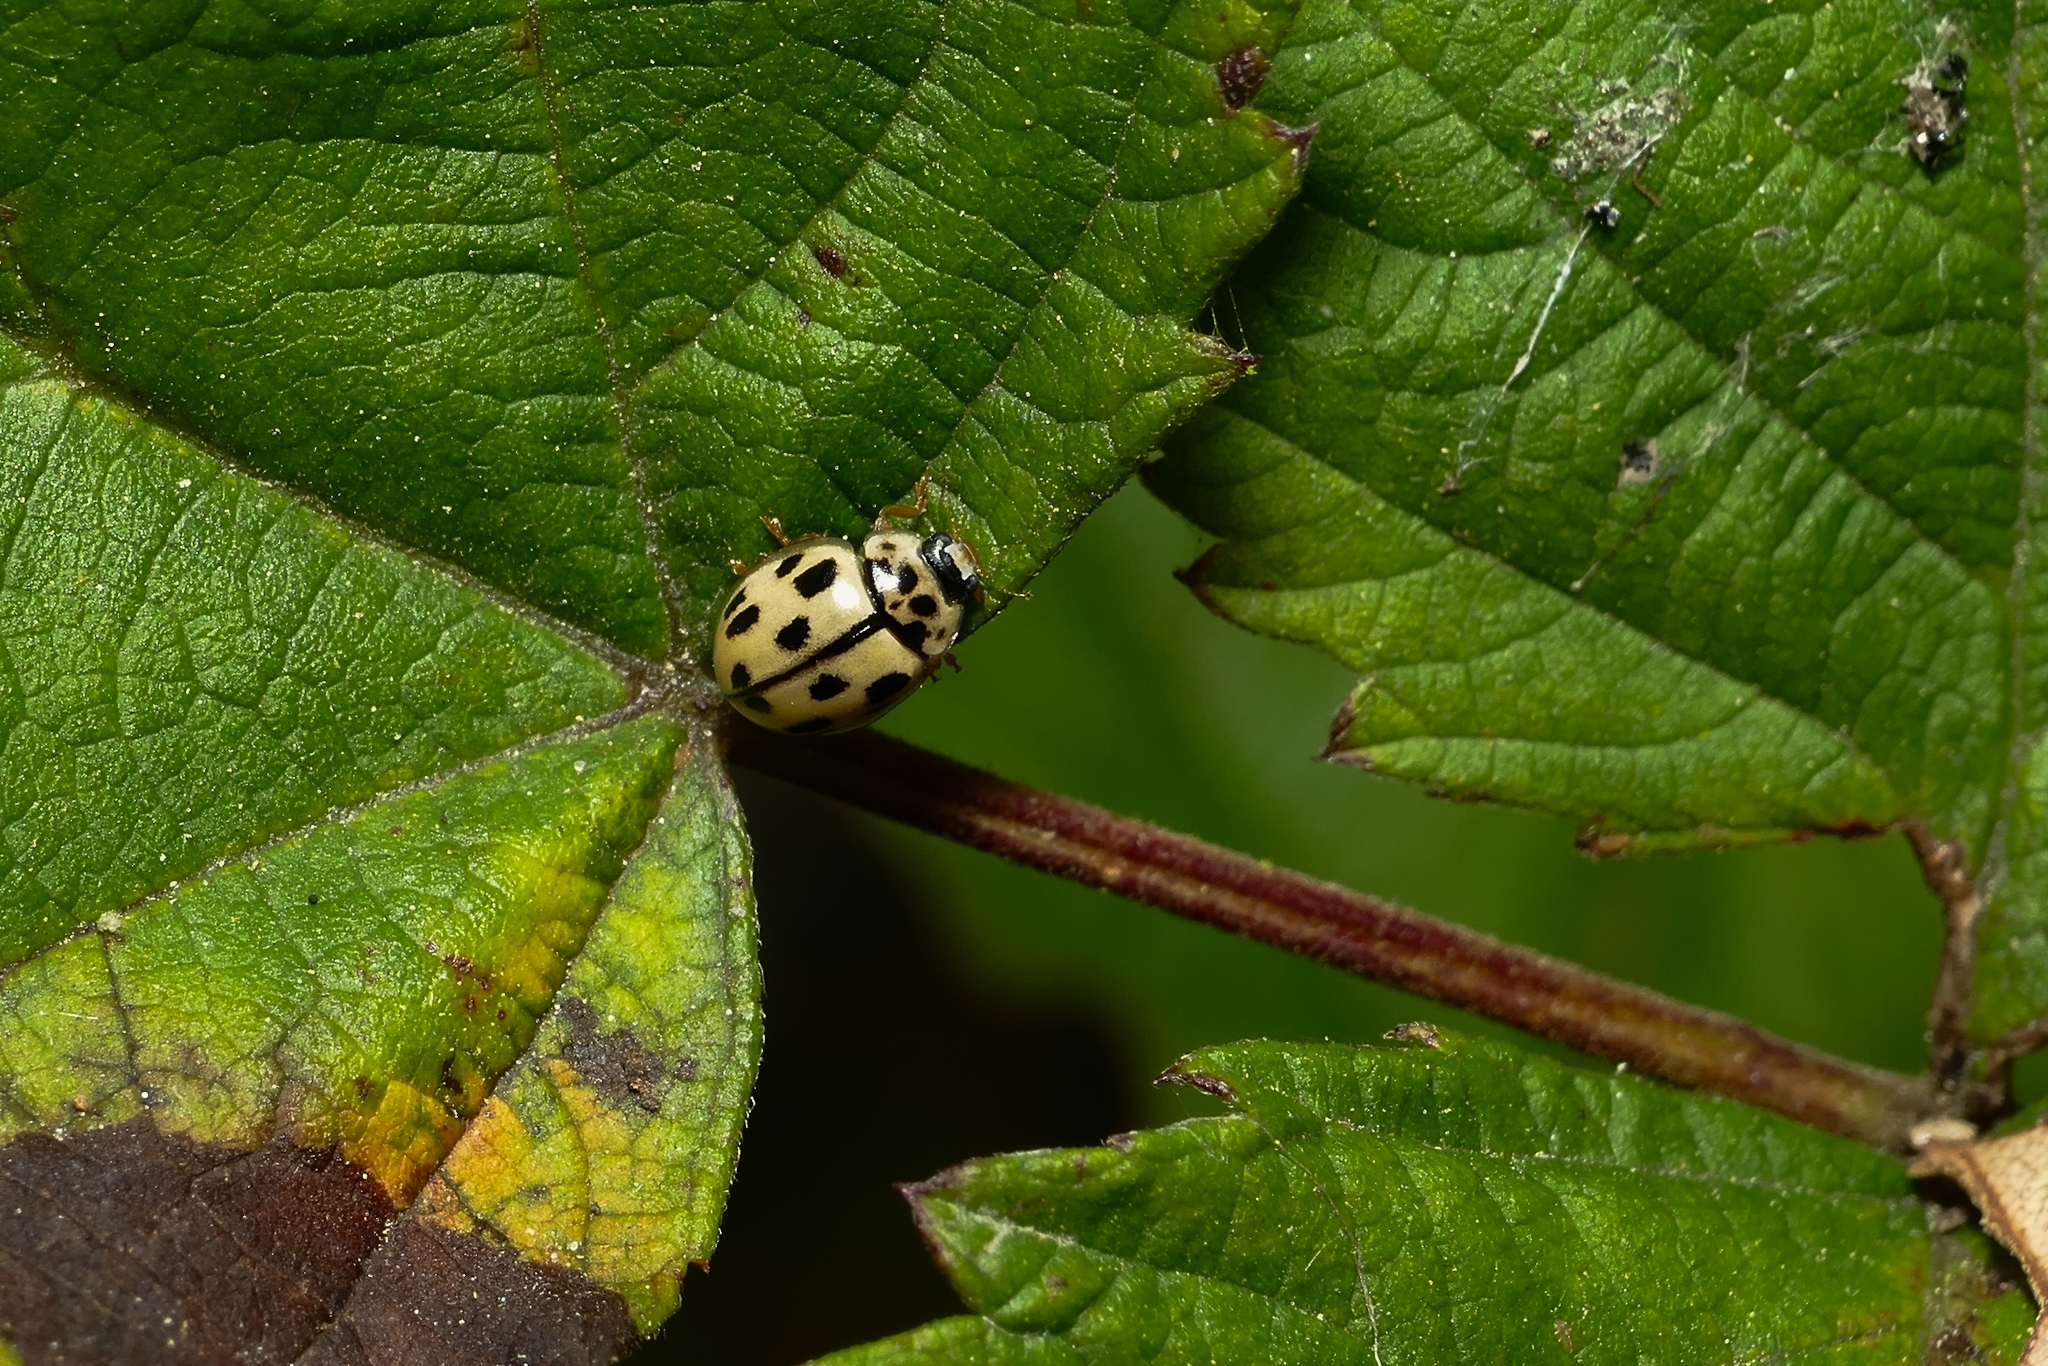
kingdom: Animalia
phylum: Arthropoda
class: Insecta
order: Coleoptera
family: Coccinellidae
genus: Propylaea
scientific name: Propylaea quatuordecimpunctata
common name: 14-spotted ladybird beetle
